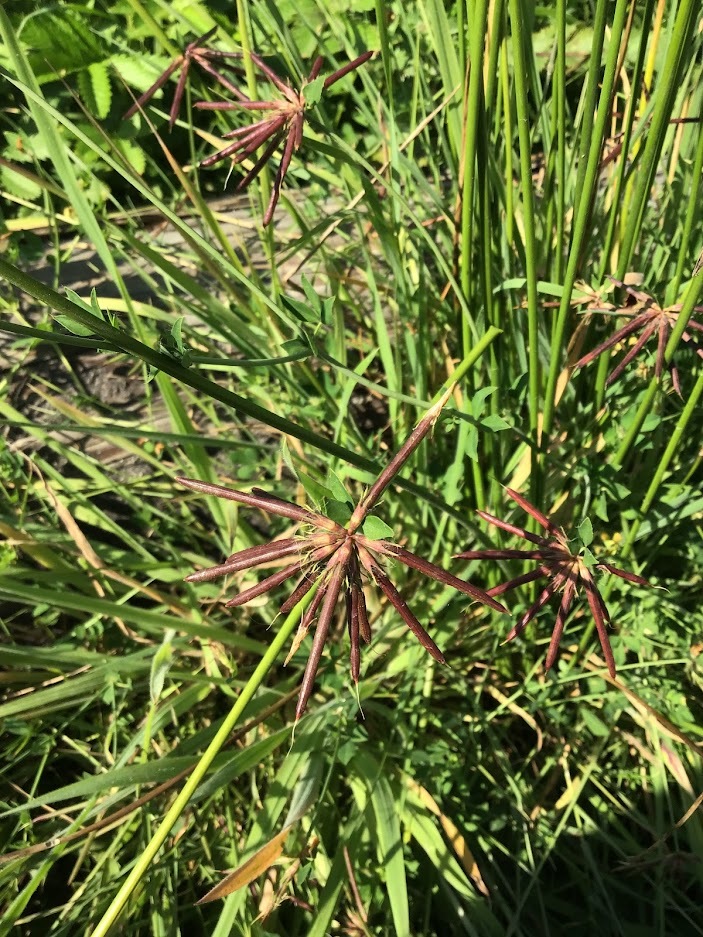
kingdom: Plantae
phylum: Tracheophyta
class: Magnoliopsida
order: Fabales
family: Fabaceae
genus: Lotus
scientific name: Lotus pedunculatus
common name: Greater birdsfoot-trefoil
